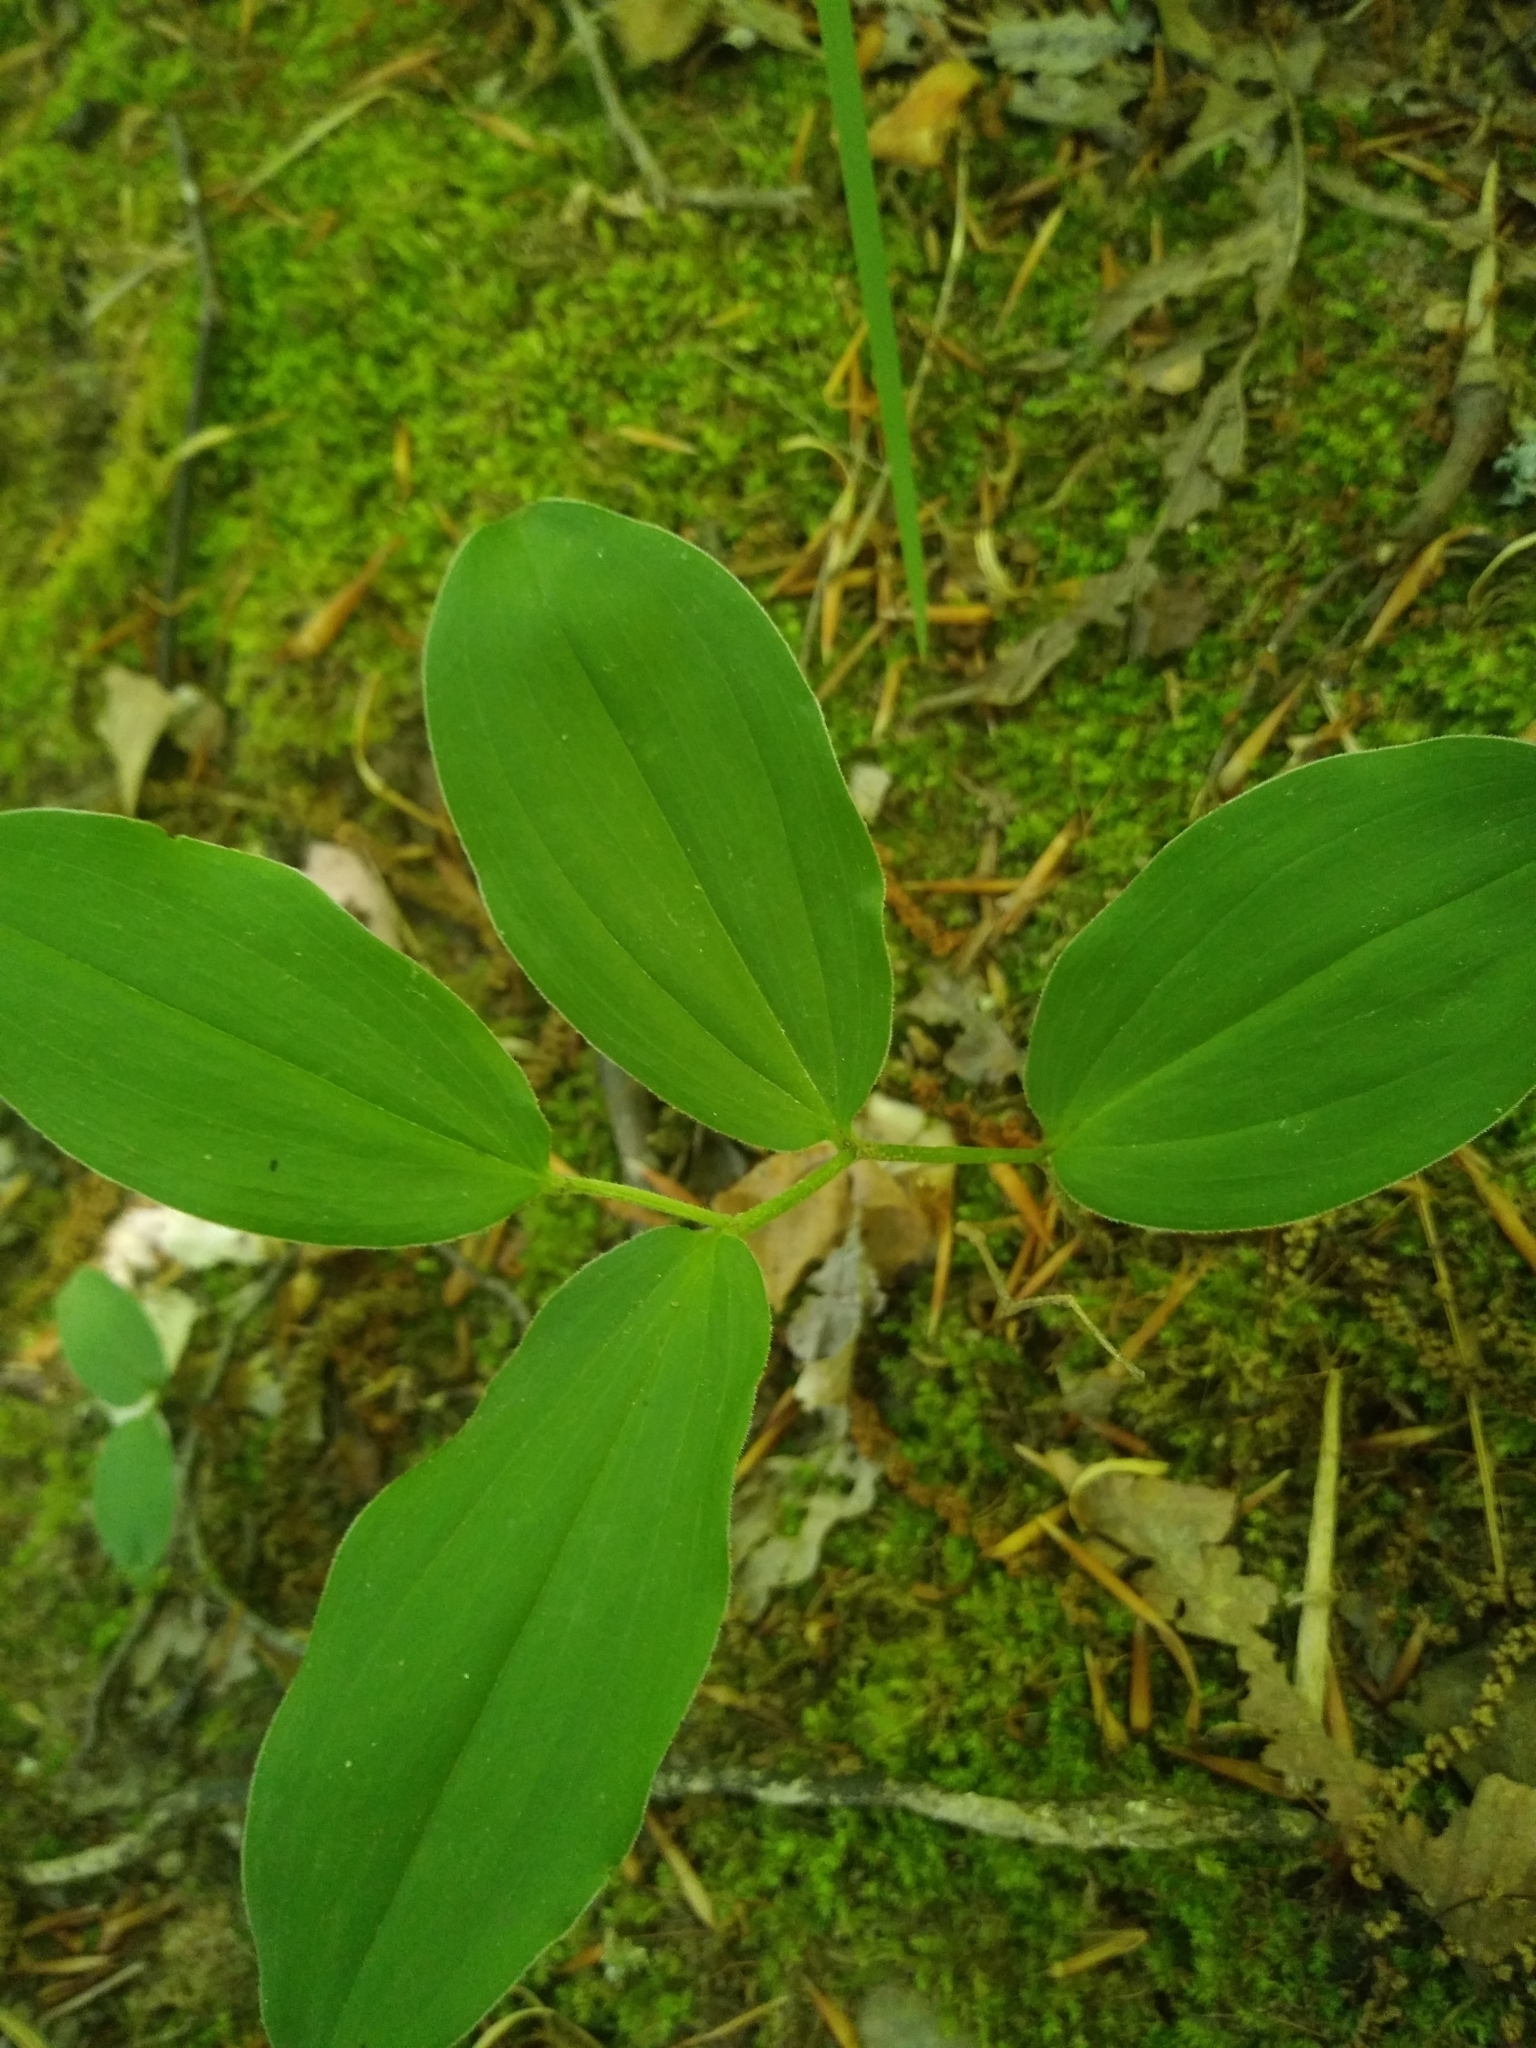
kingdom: Plantae
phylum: Tracheophyta
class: Liliopsida
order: Asparagales
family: Asparagaceae
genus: Maianthemum
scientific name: Maianthemum racemosum
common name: False spikenard
